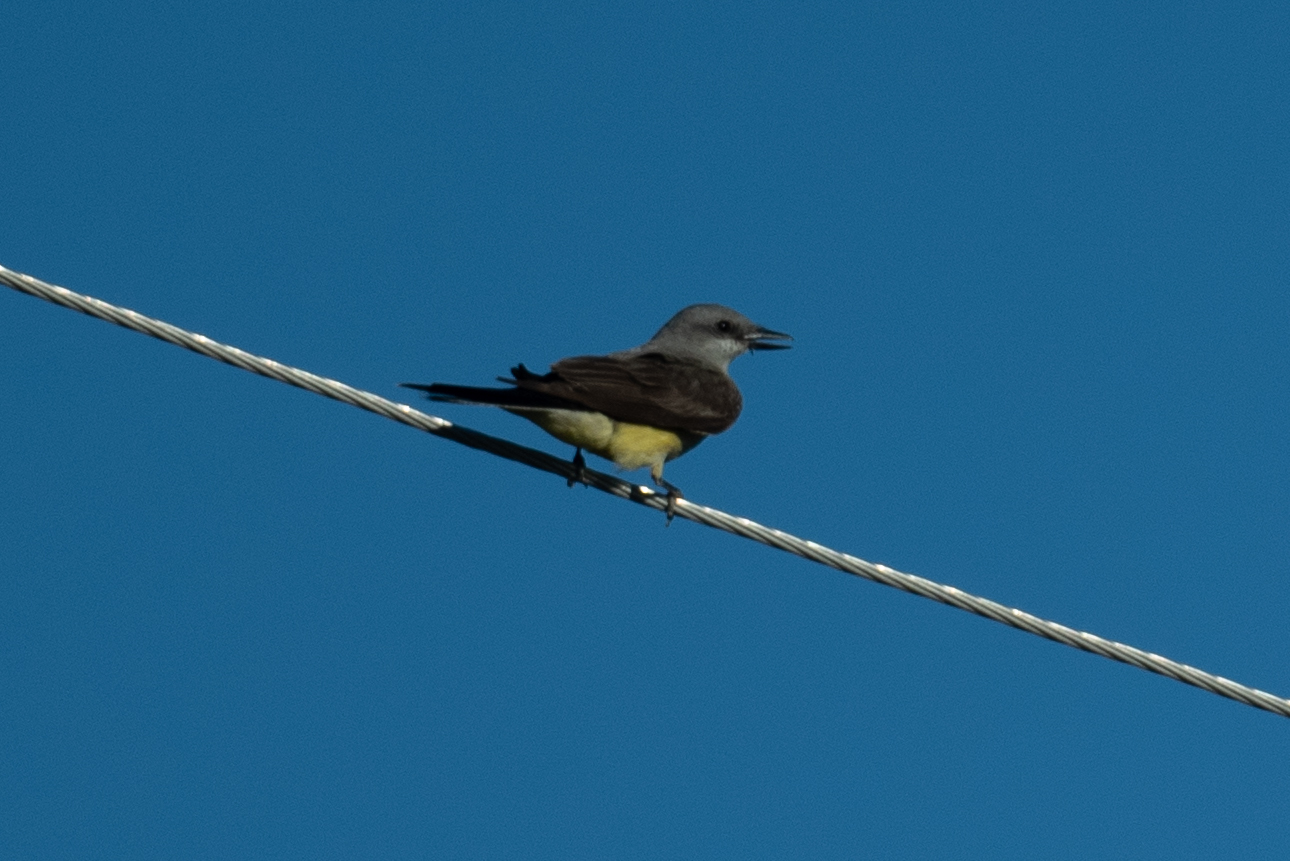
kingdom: Animalia
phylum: Chordata
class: Aves
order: Passeriformes
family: Tyrannidae
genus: Tyrannus
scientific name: Tyrannus verticalis
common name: Western kingbird
